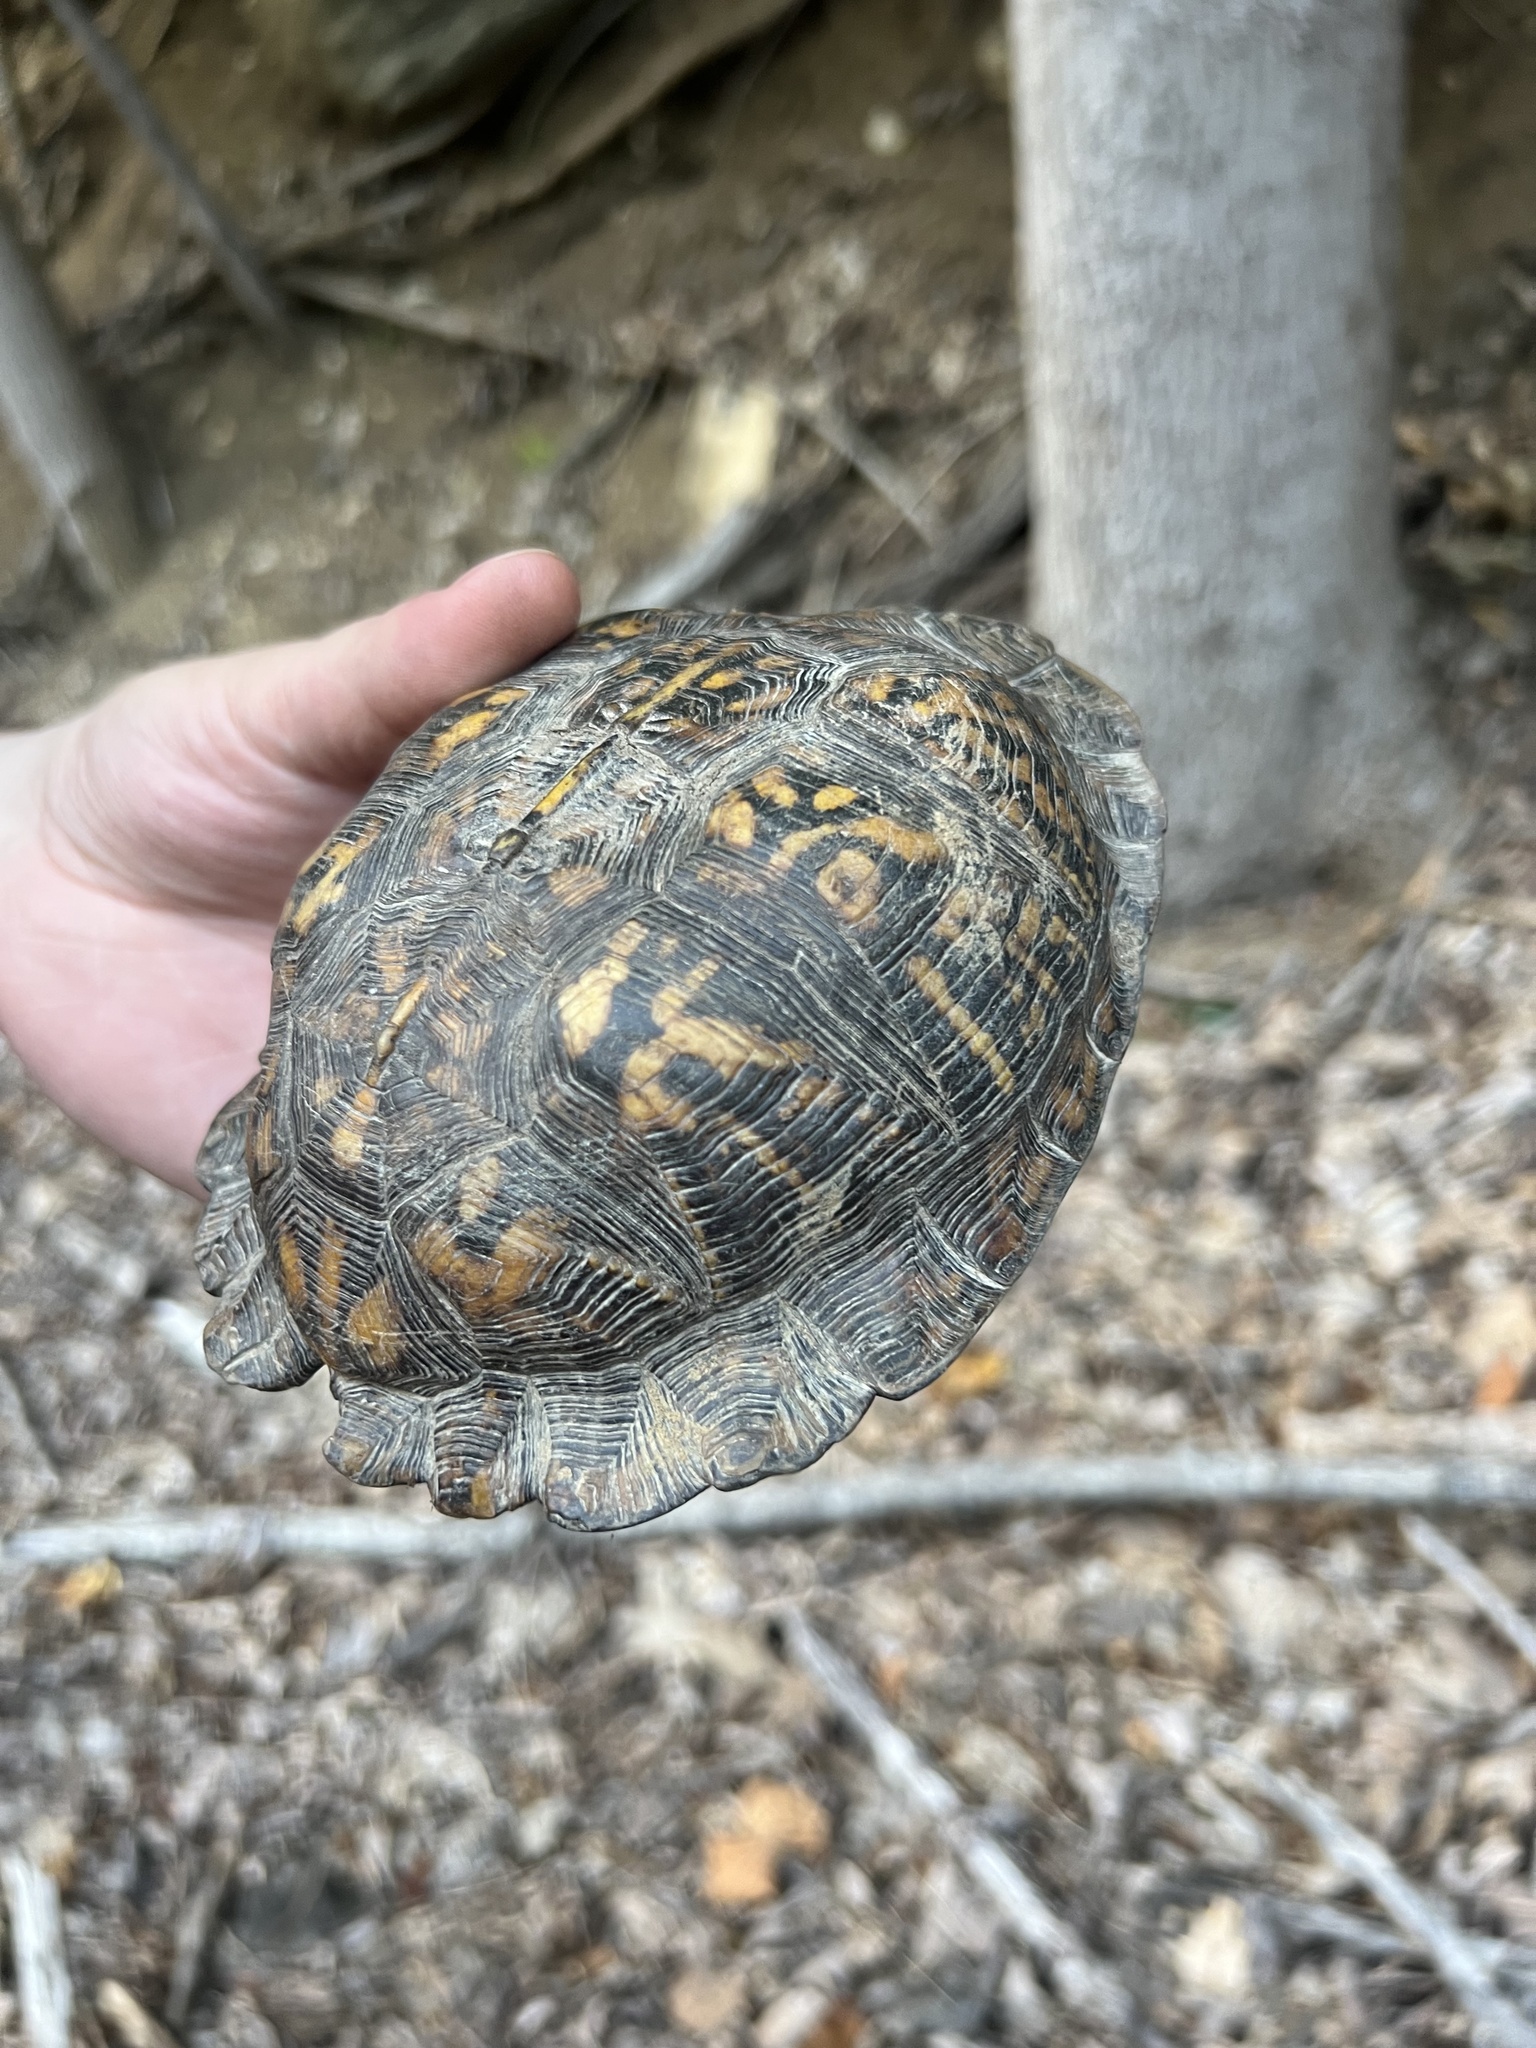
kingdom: Animalia
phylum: Chordata
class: Testudines
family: Emydidae
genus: Terrapene
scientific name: Terrapene carolina
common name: Common box turtle
